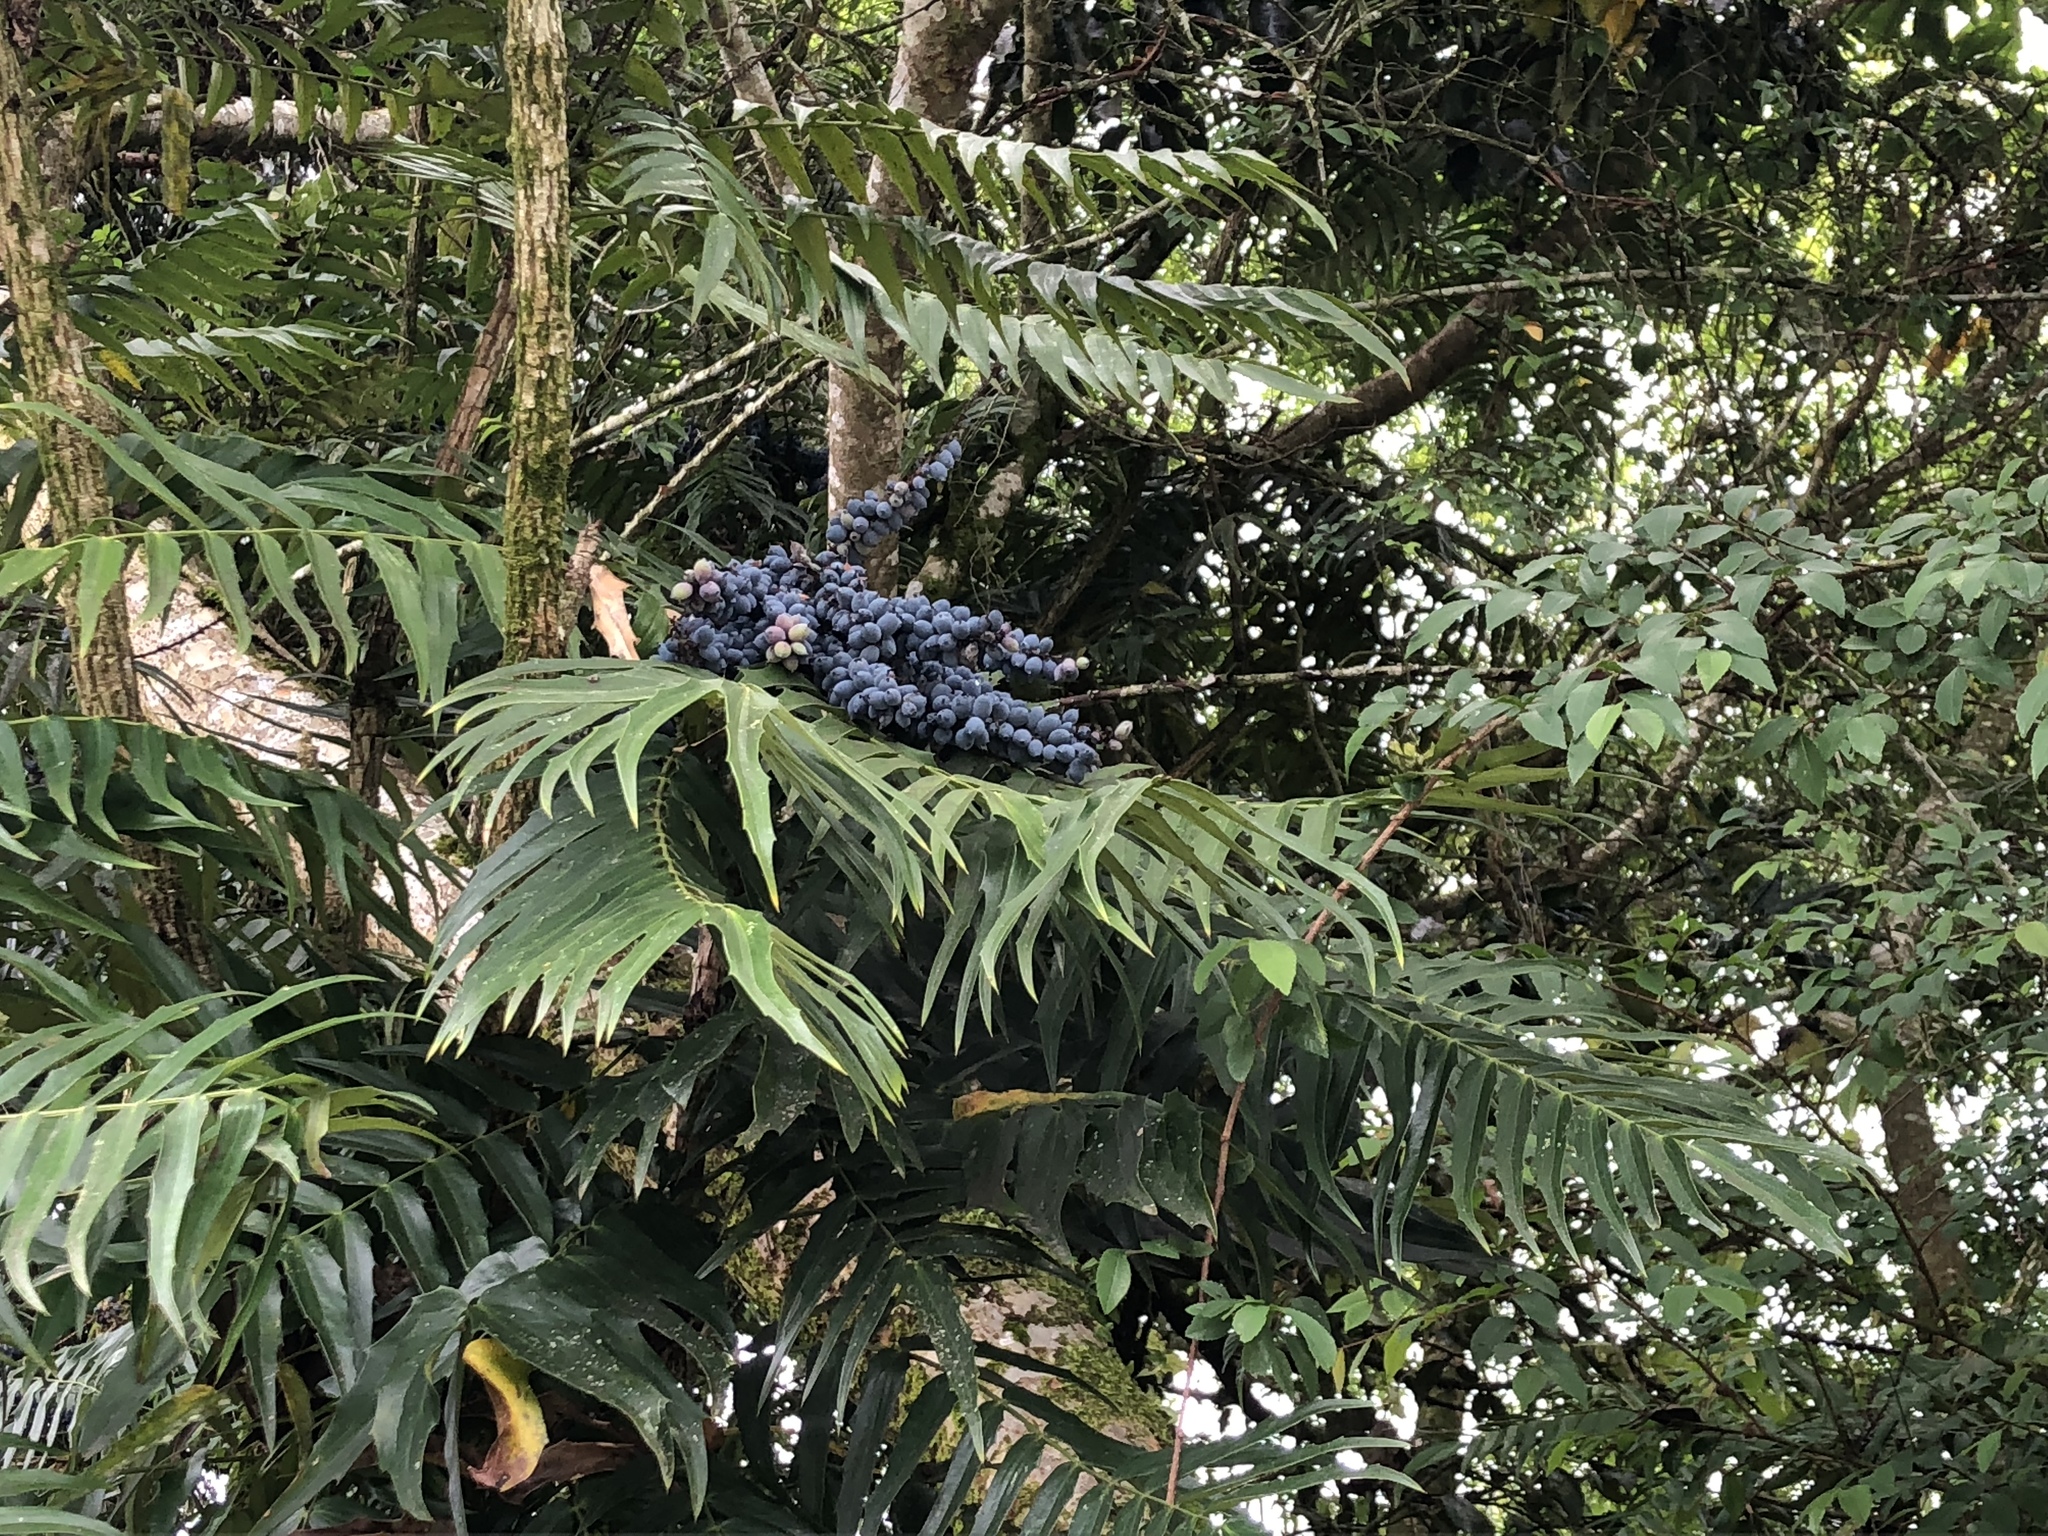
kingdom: Plantae
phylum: Tracheophyta
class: Magnoliopsida
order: Ranunculales
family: Berberidaceae
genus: Mahonia
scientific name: Mahonia oiwakensis
